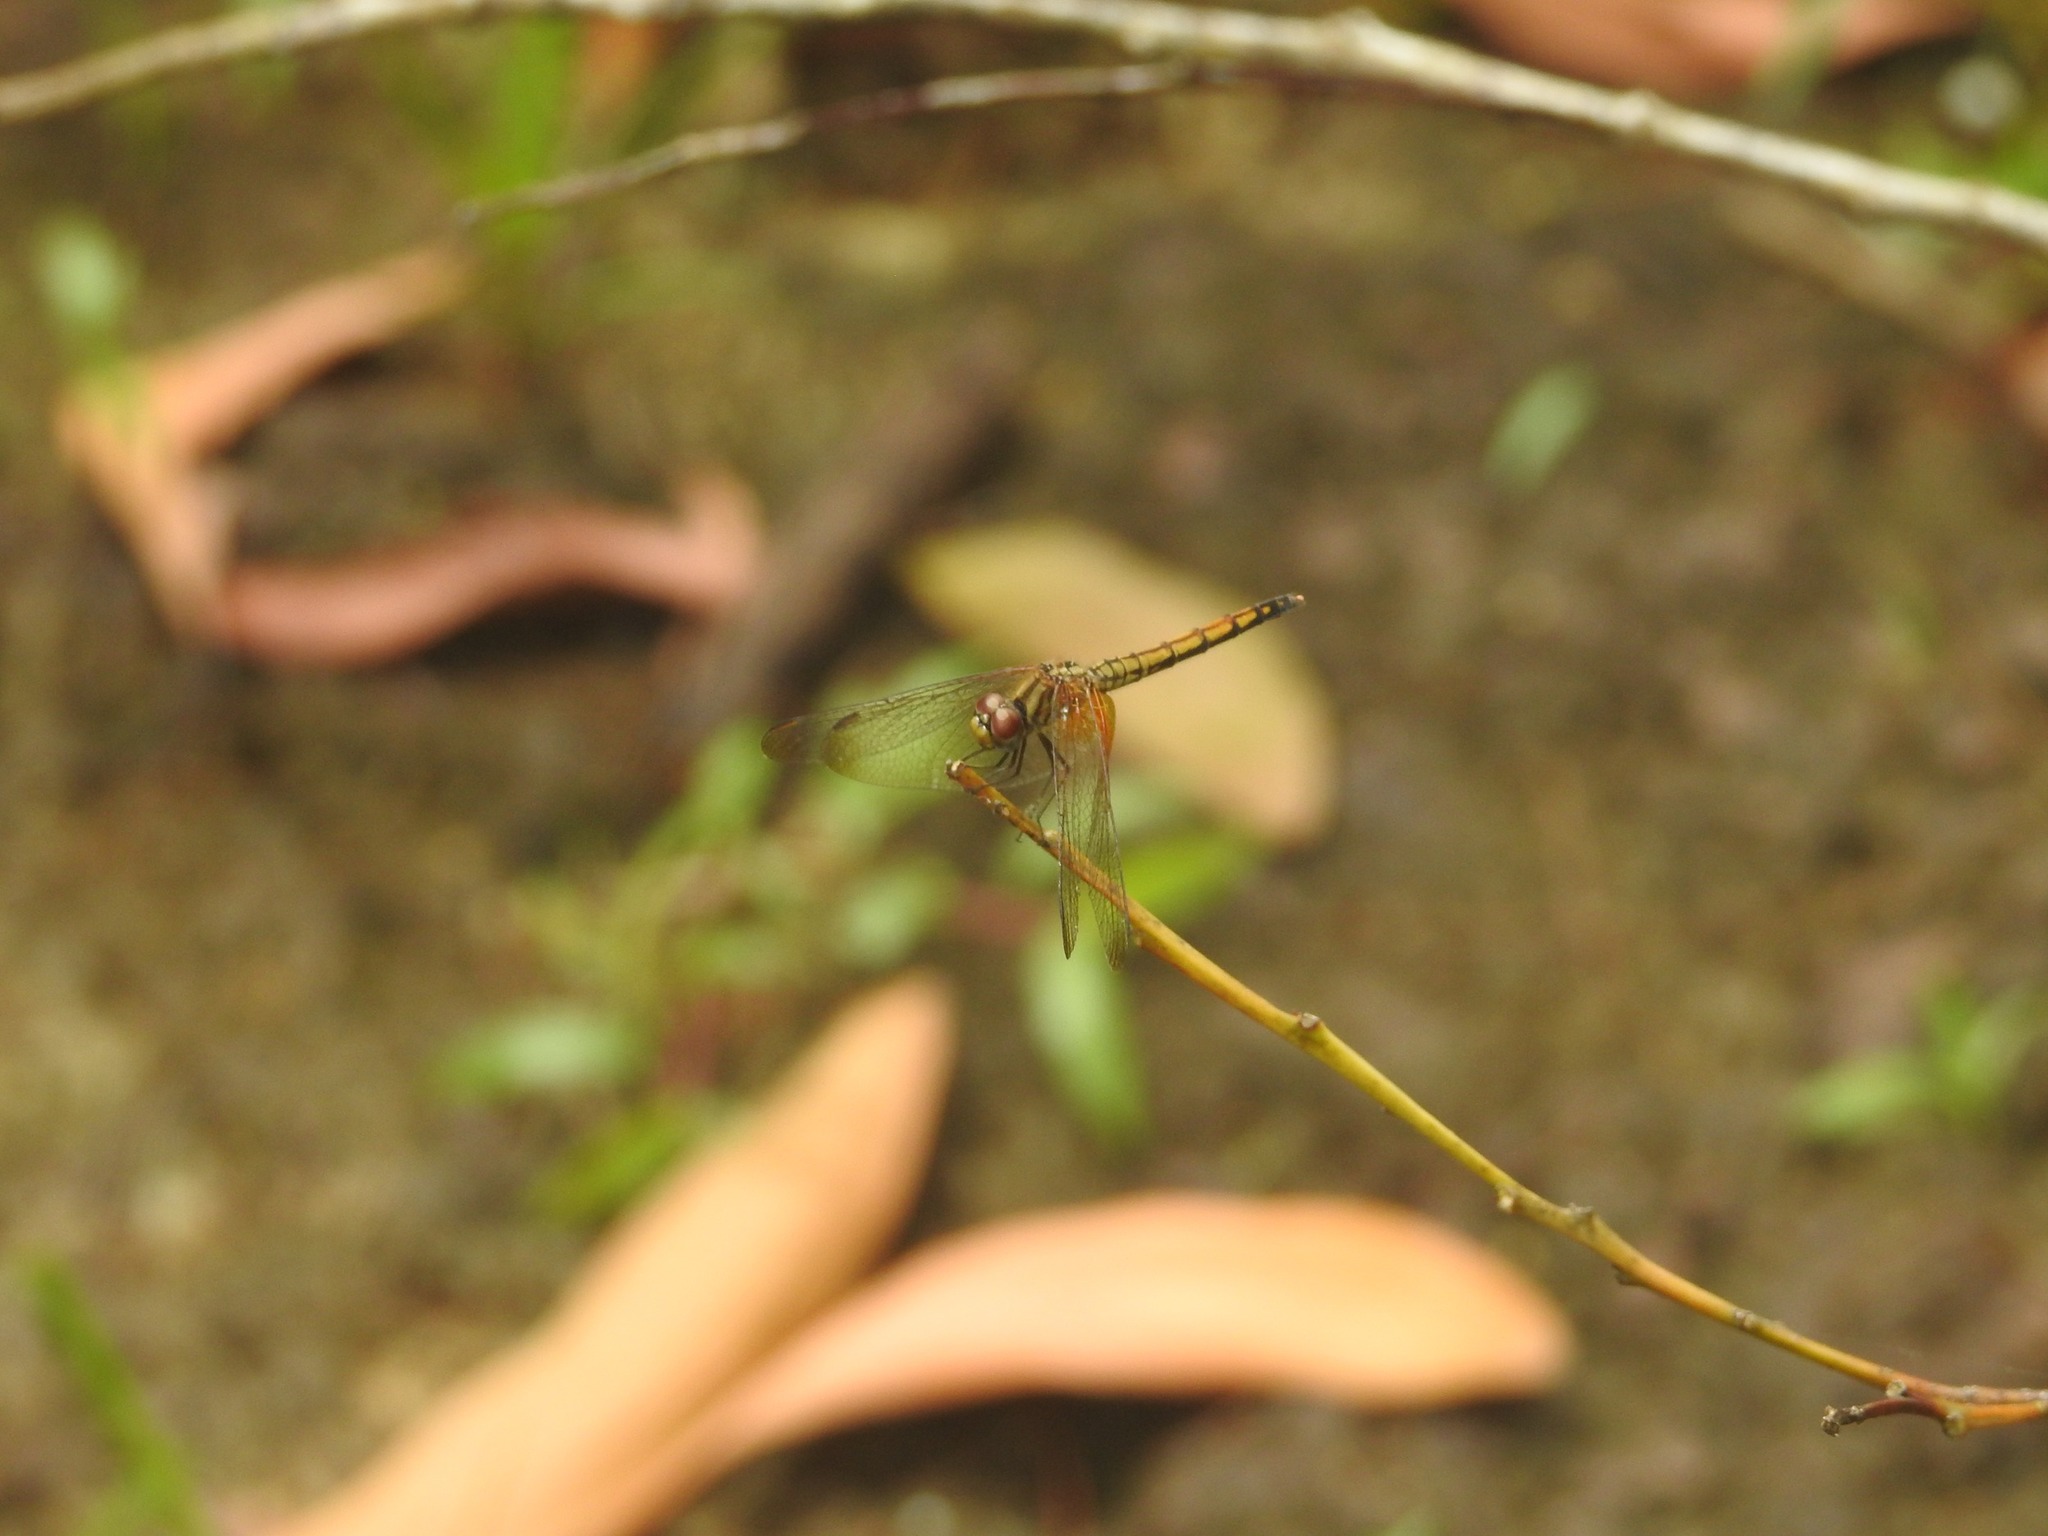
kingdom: Animalia
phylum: Arthropoda
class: Insecta
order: Odonata
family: Libellulidae
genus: Trithemis
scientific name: Trithemis aurora
